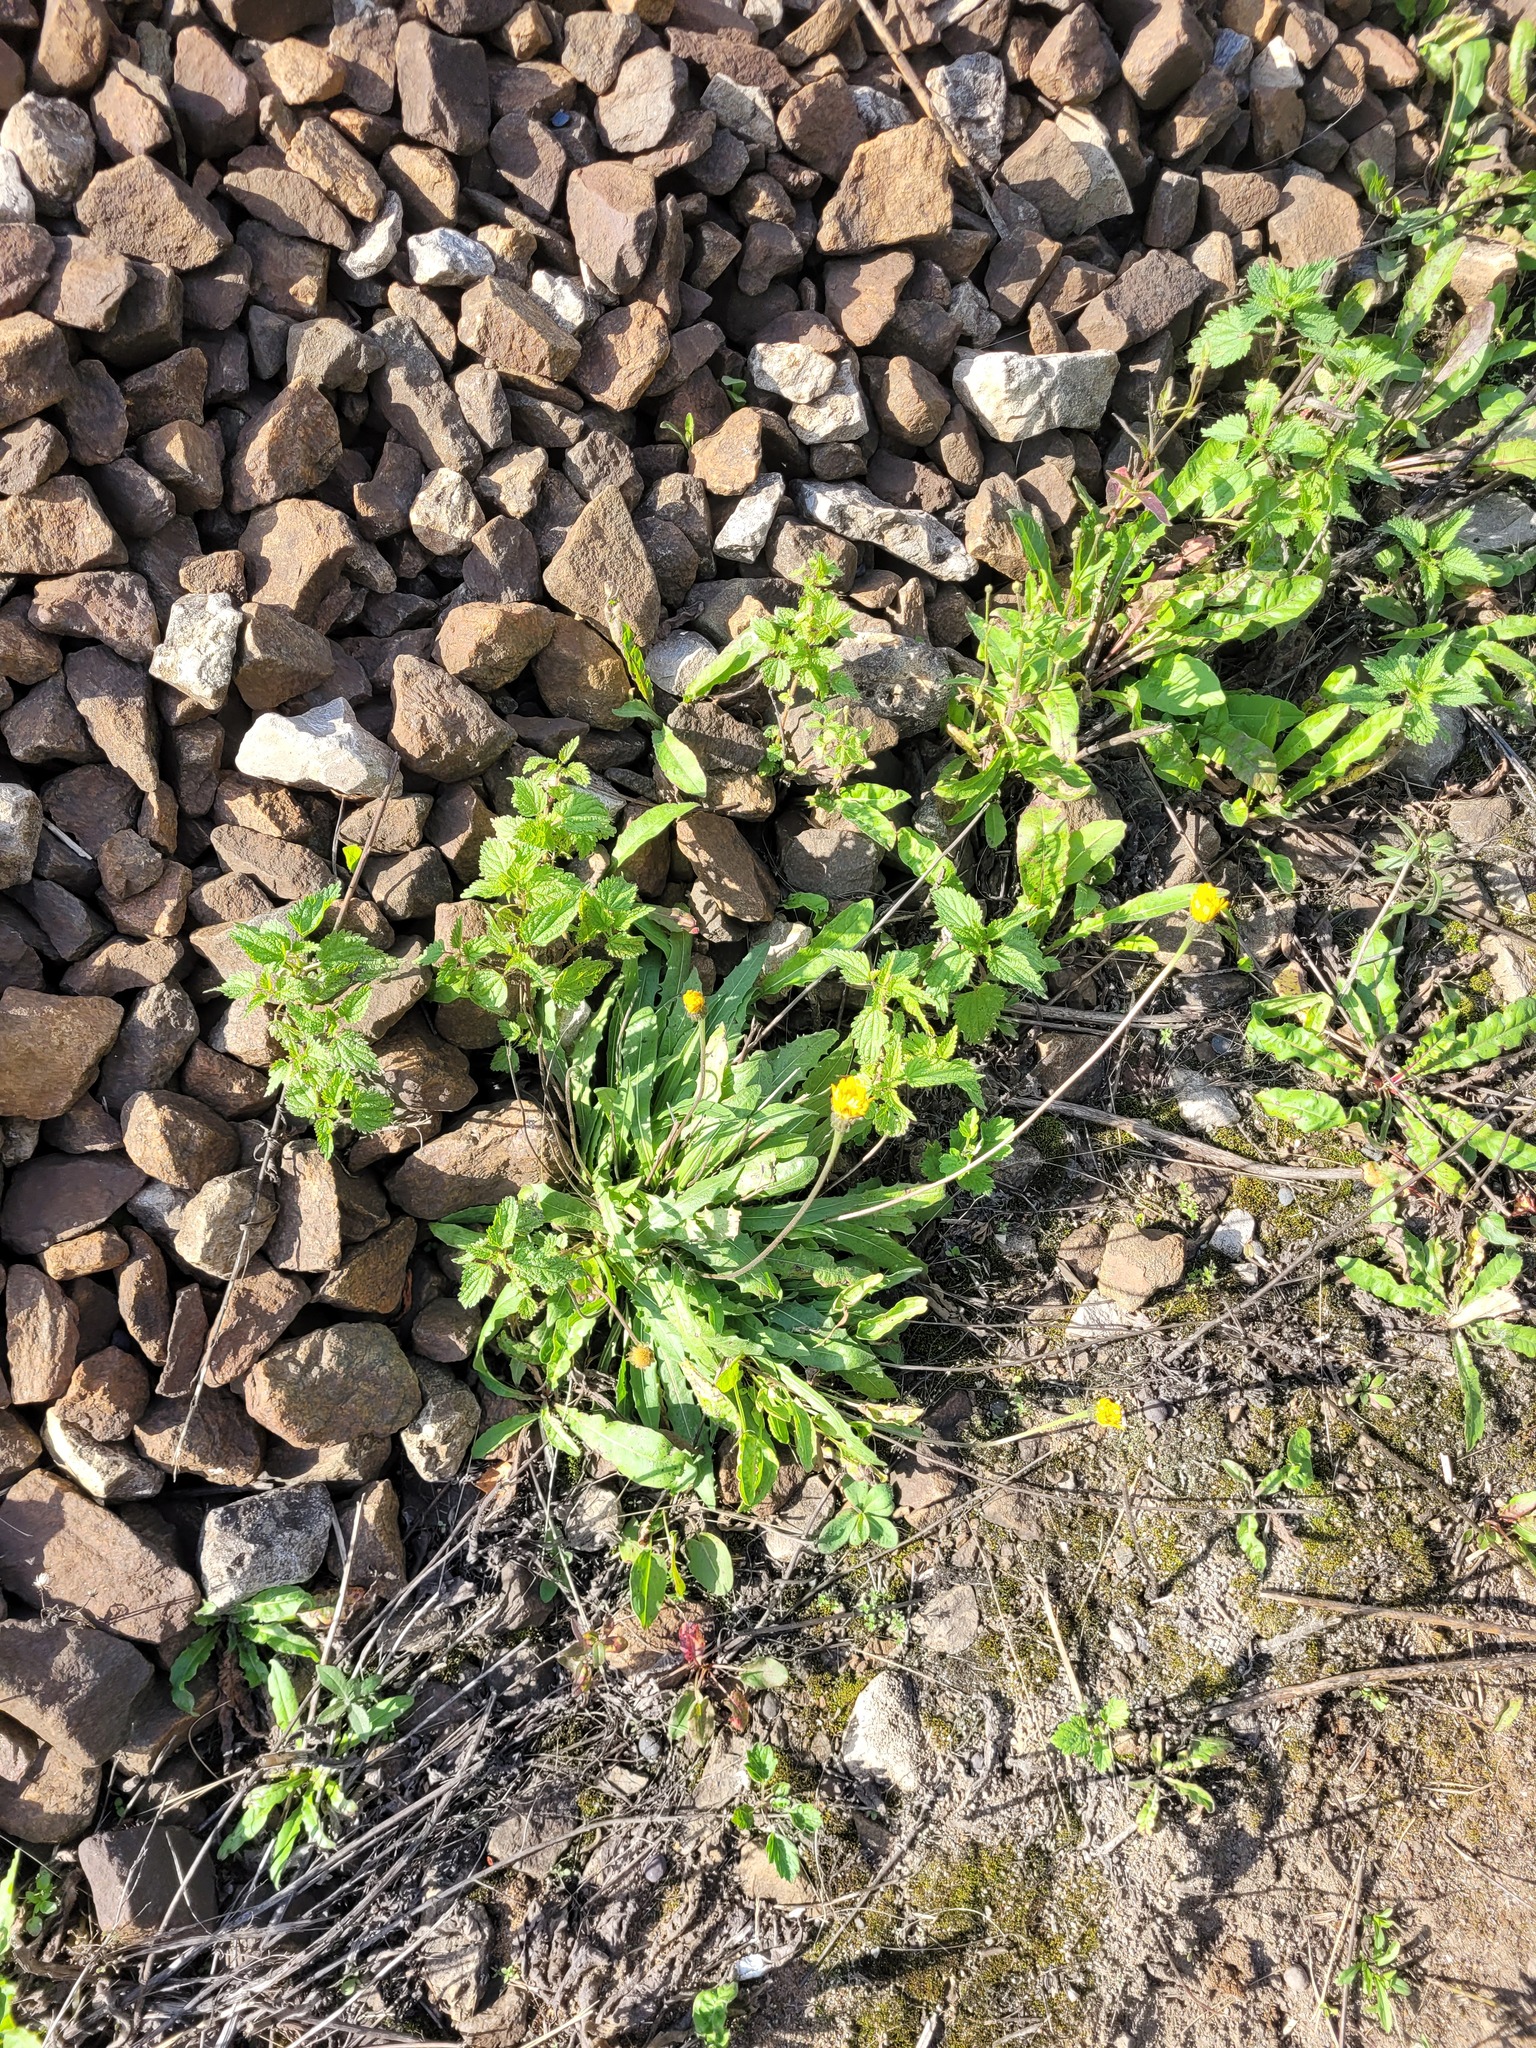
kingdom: Plantae
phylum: Tracheophyta
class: Magnoliopsida
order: Asterales
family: Asteraceae
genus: Leontodon
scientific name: Leontodon hispidus
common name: Rough hawkbit
